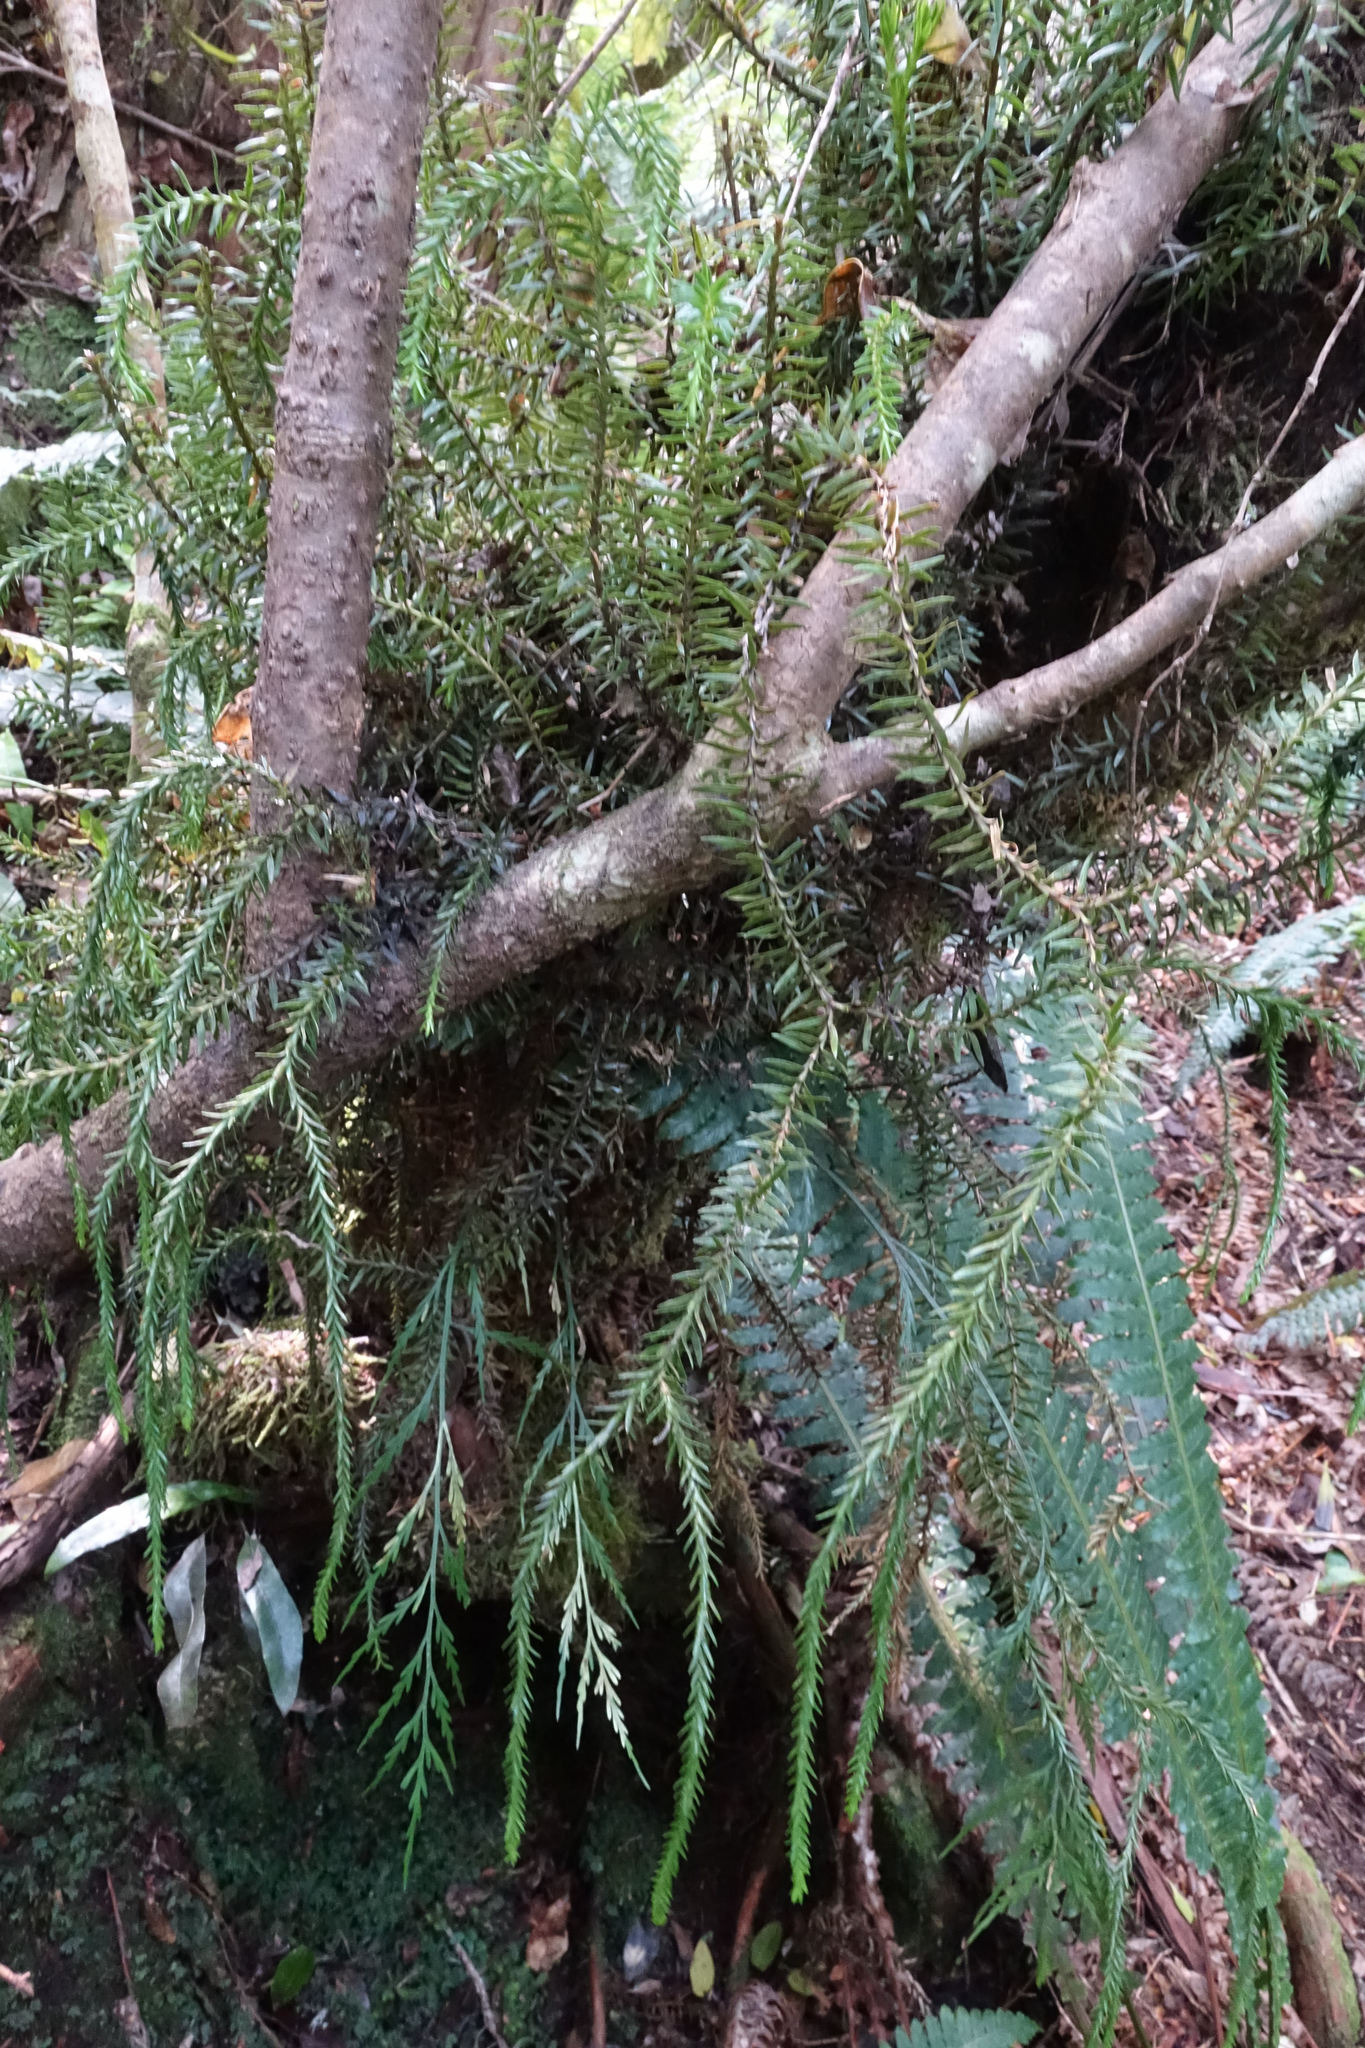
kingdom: Plantae
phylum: Tracheophyta
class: Lycopodiopsida
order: Lycopodiales
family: Lycopodiaceae
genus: Phlegmariurus
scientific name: Phlegmariurus varius
